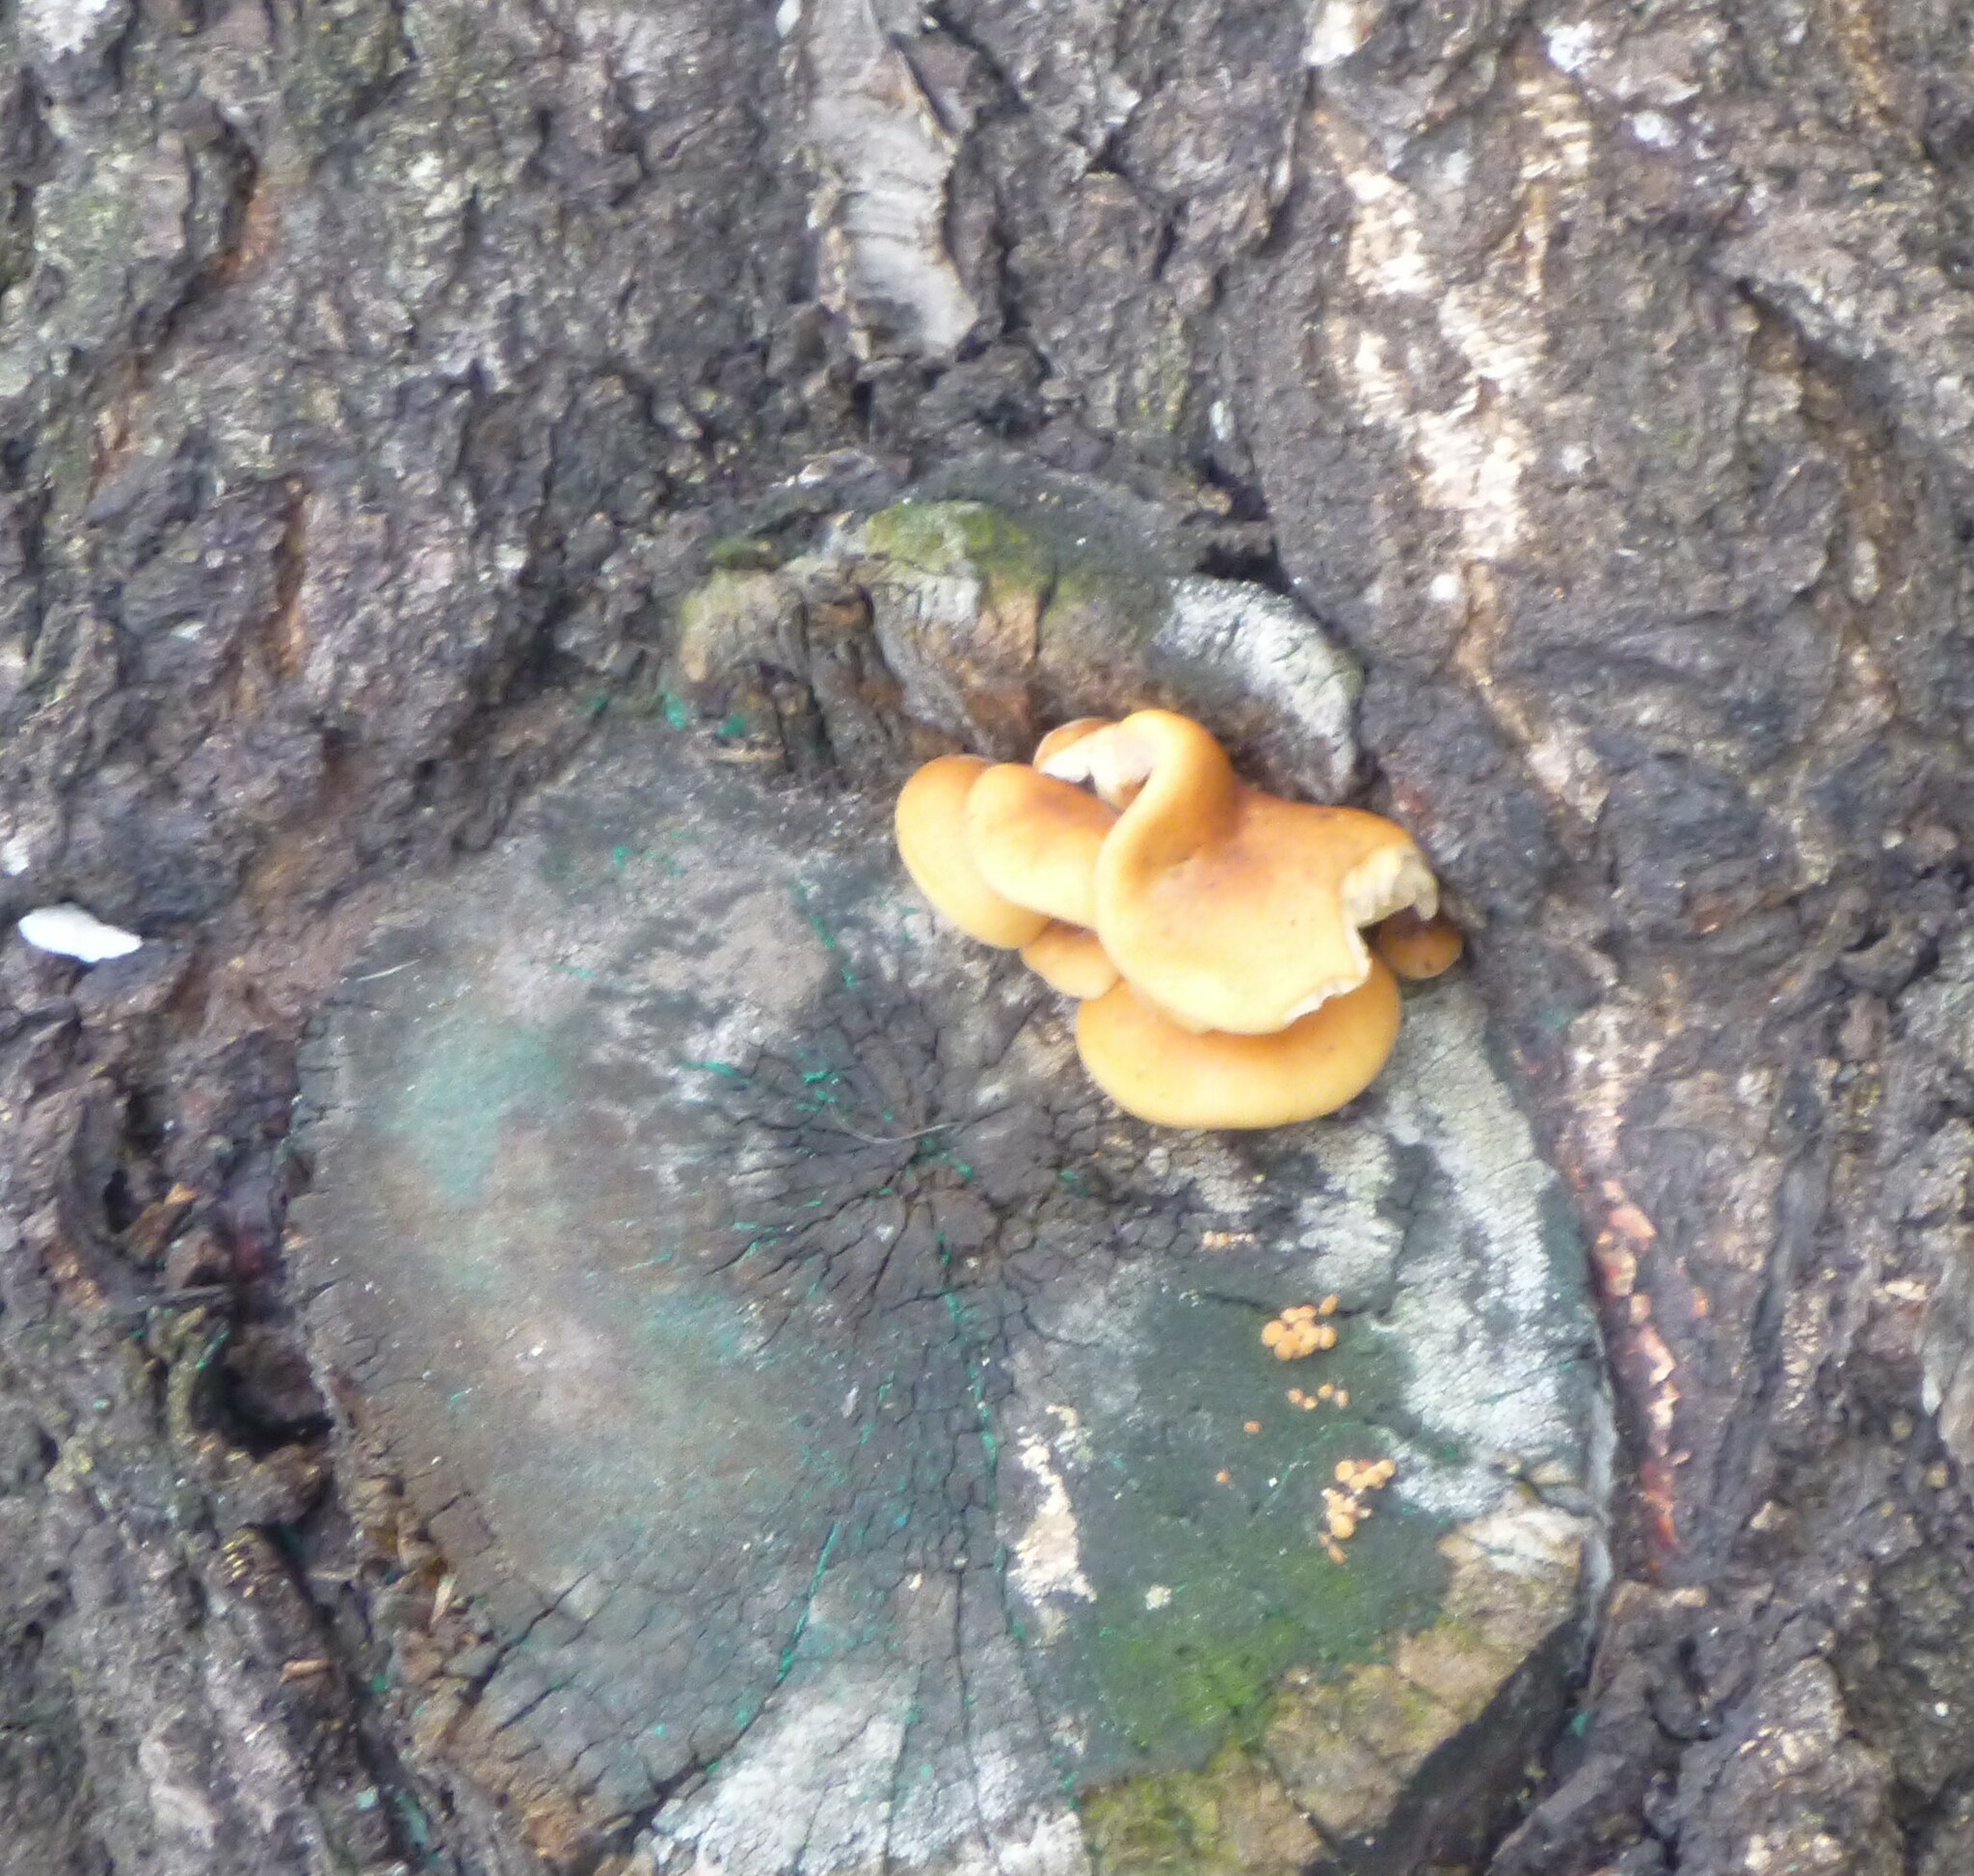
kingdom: Fungi
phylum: Basidiomycota
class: Agaricomycetes
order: Agaricales
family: Physalacriaceae
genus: Flammulina
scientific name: Flammulina
